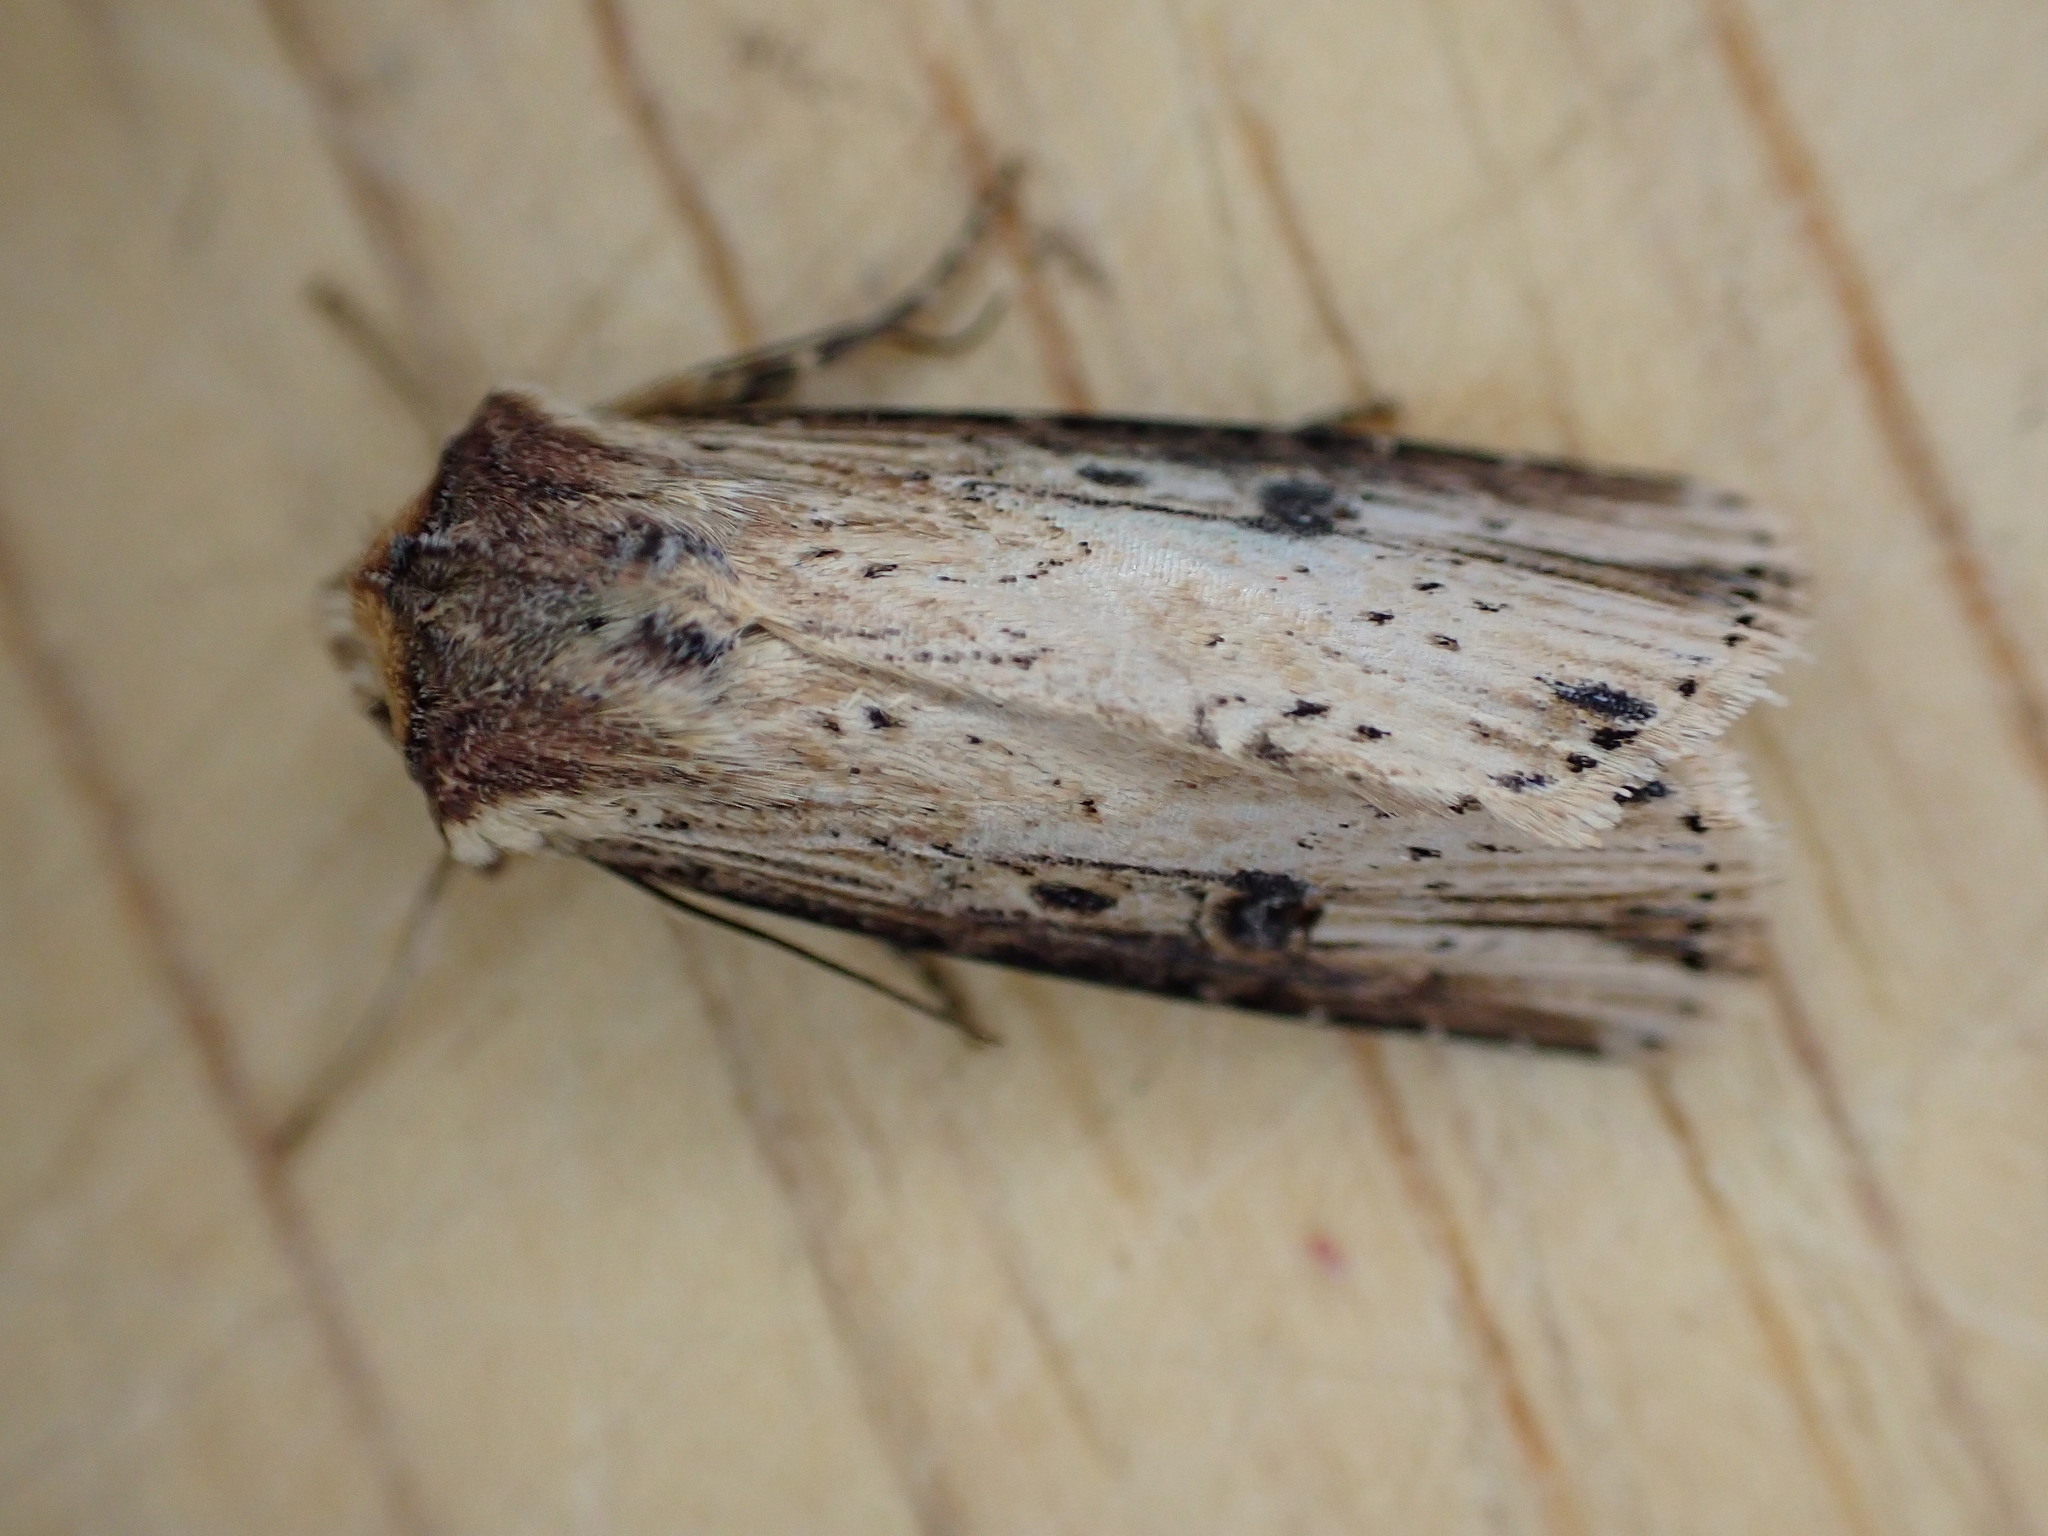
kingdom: Animalia
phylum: Arthropoda
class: Insecta
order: Lepidoptera
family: Noctuidae
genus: Axylia
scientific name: Axylia putris
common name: Flame
